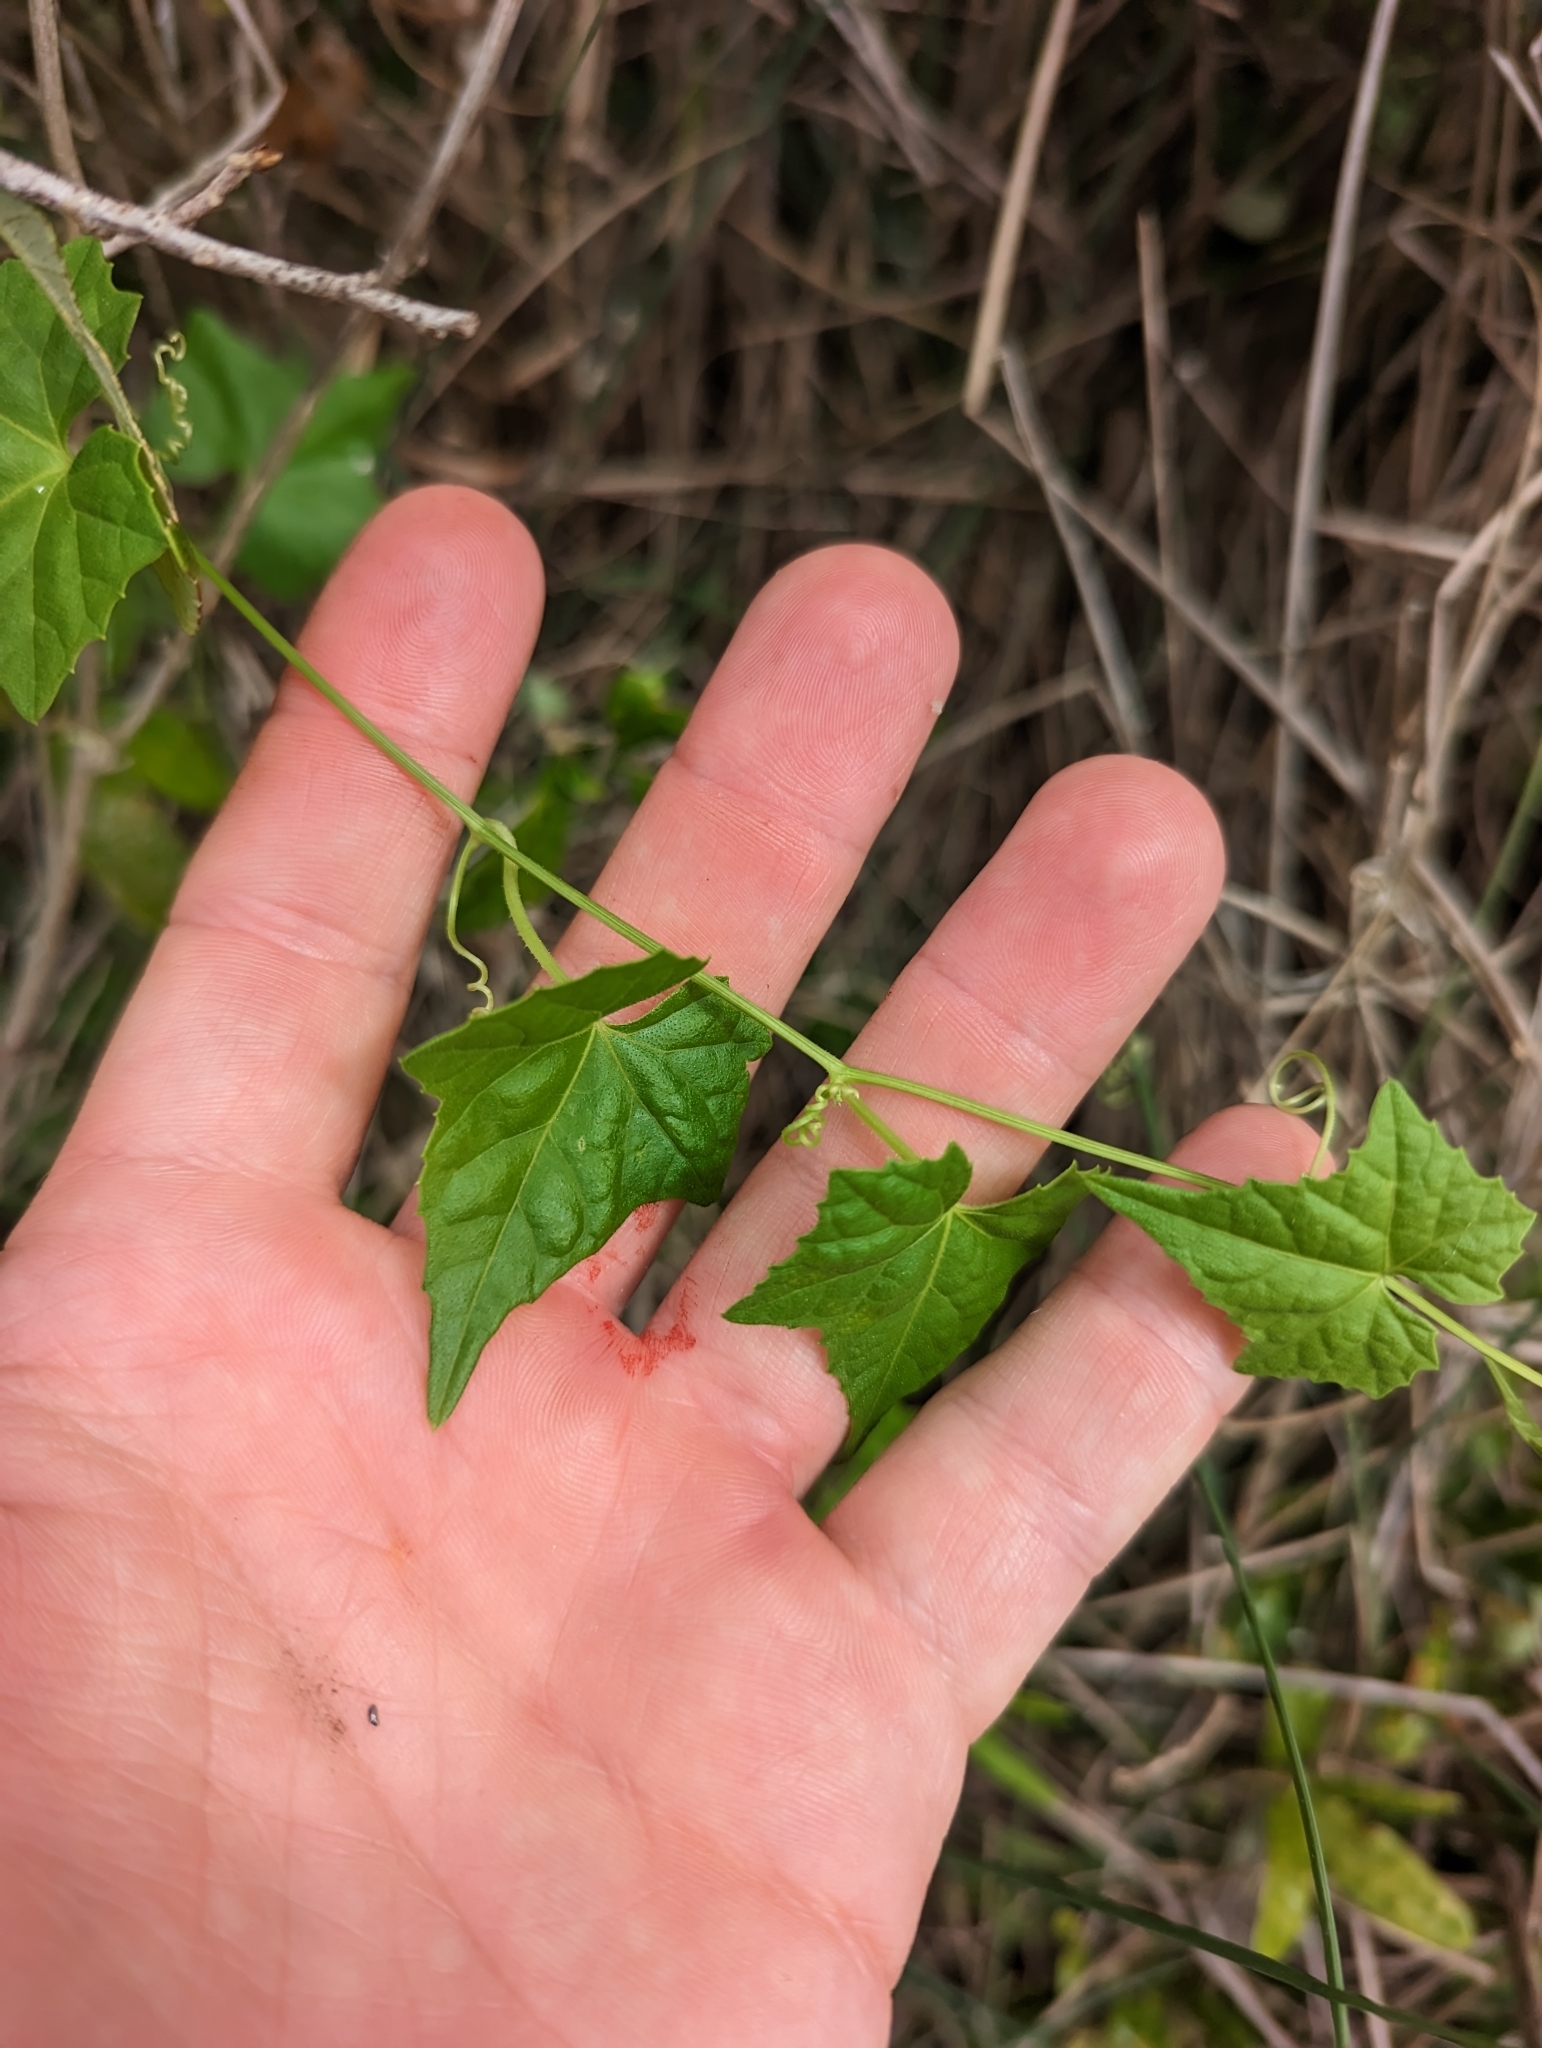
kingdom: Plantae
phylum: Tracheophyta
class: Magnoliopsida
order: Cucurbitales
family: Cucurbitaceae
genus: Melothria
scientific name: Melothria pendula
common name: Creeping-cucumber
